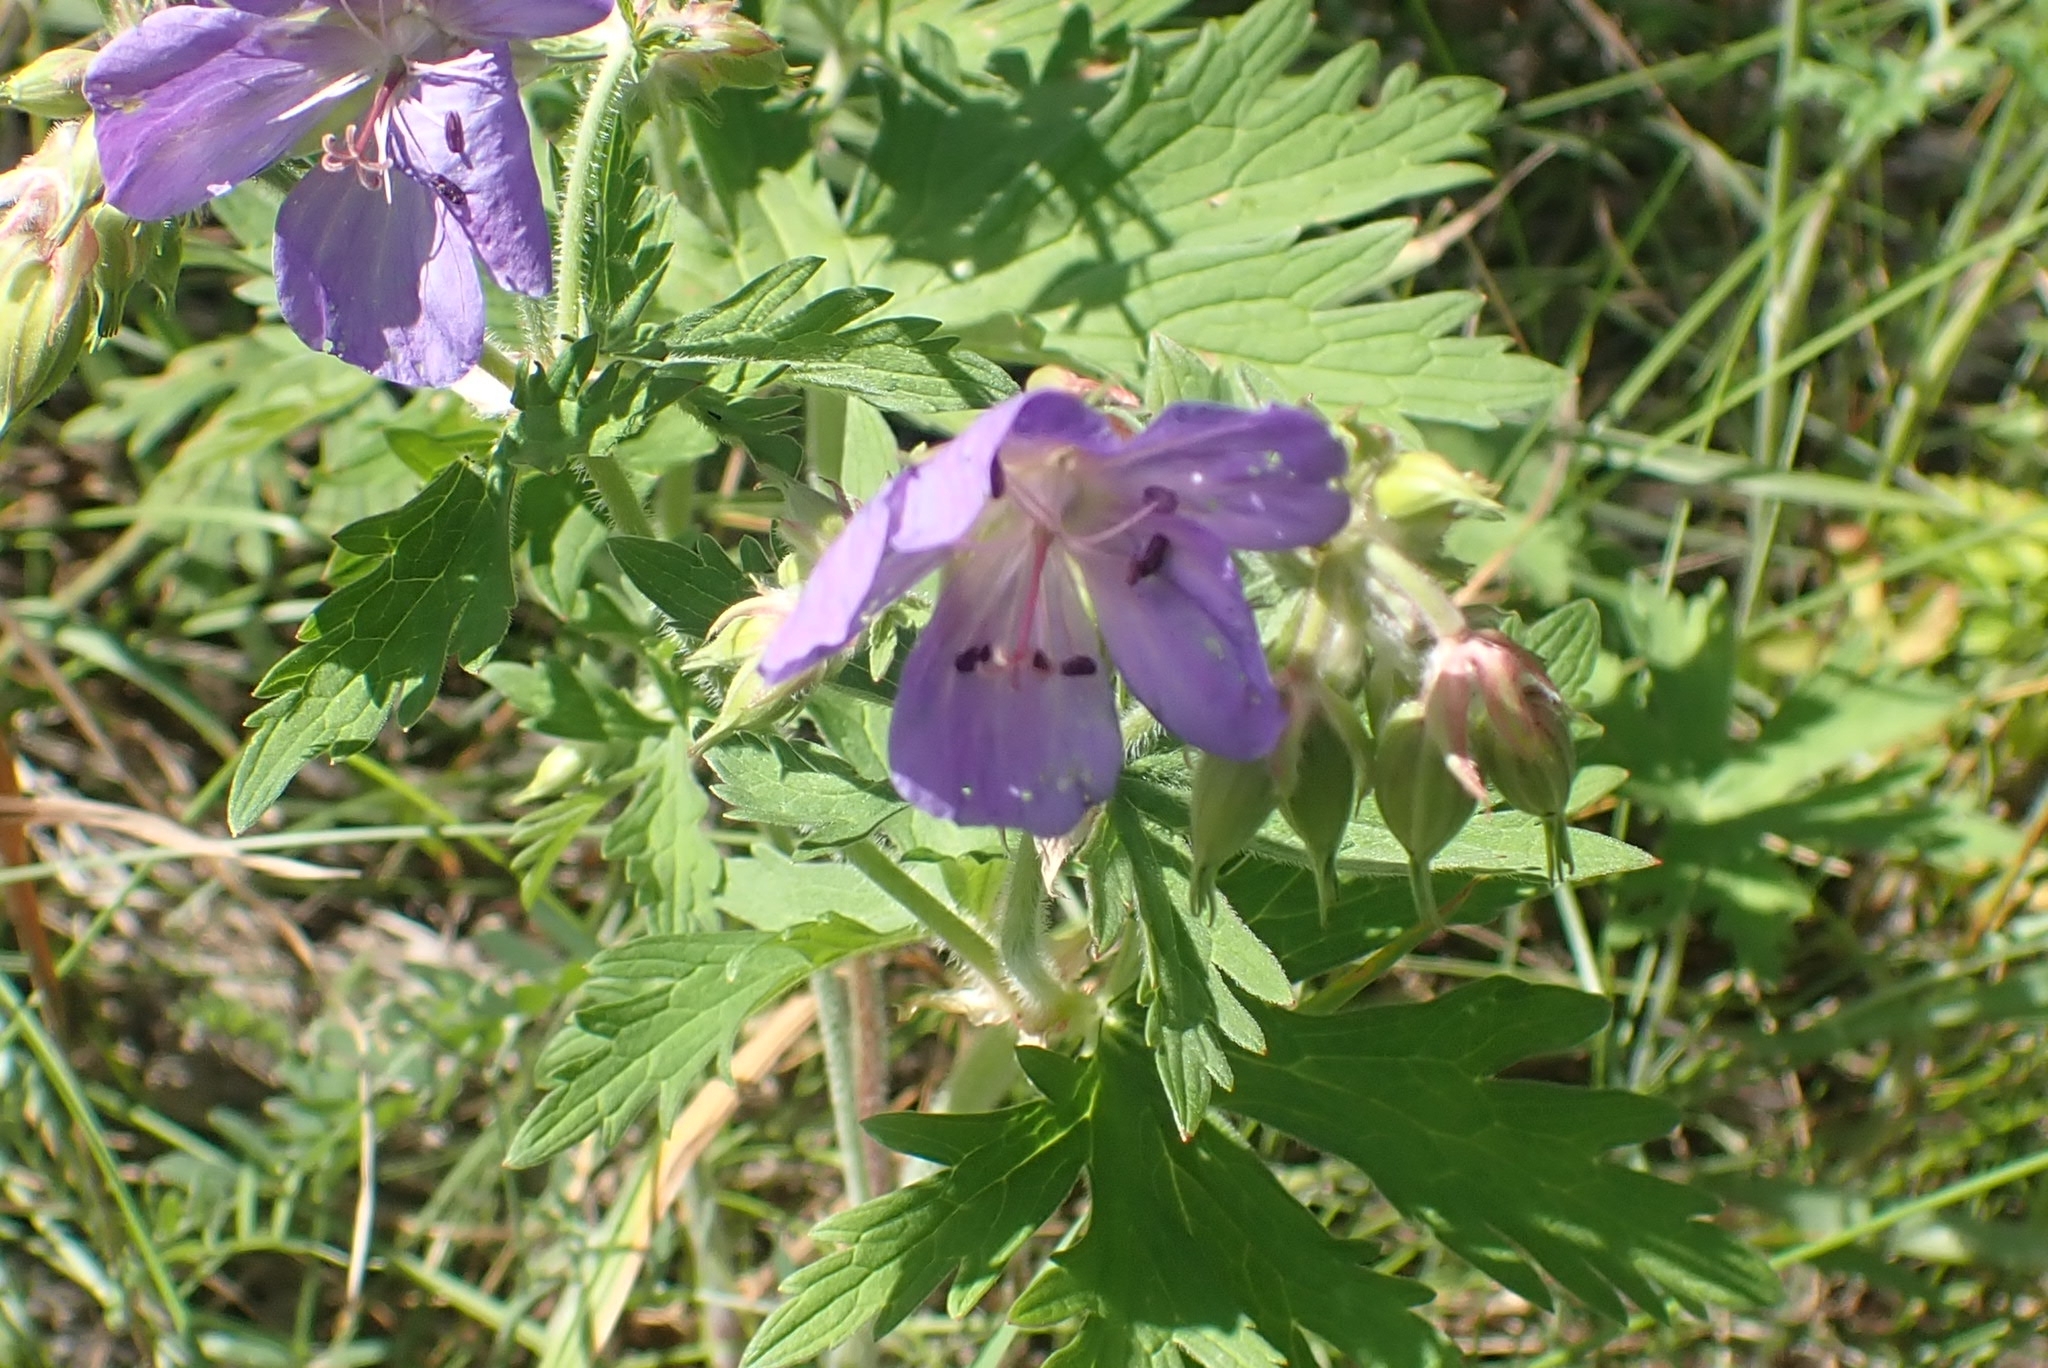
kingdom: Plantae
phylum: Tracheophyta
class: Magnoliopsida
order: Geraniales
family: Geraniaceae
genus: Geranium
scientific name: Geranium pratense
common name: Meadow crane's-bill
